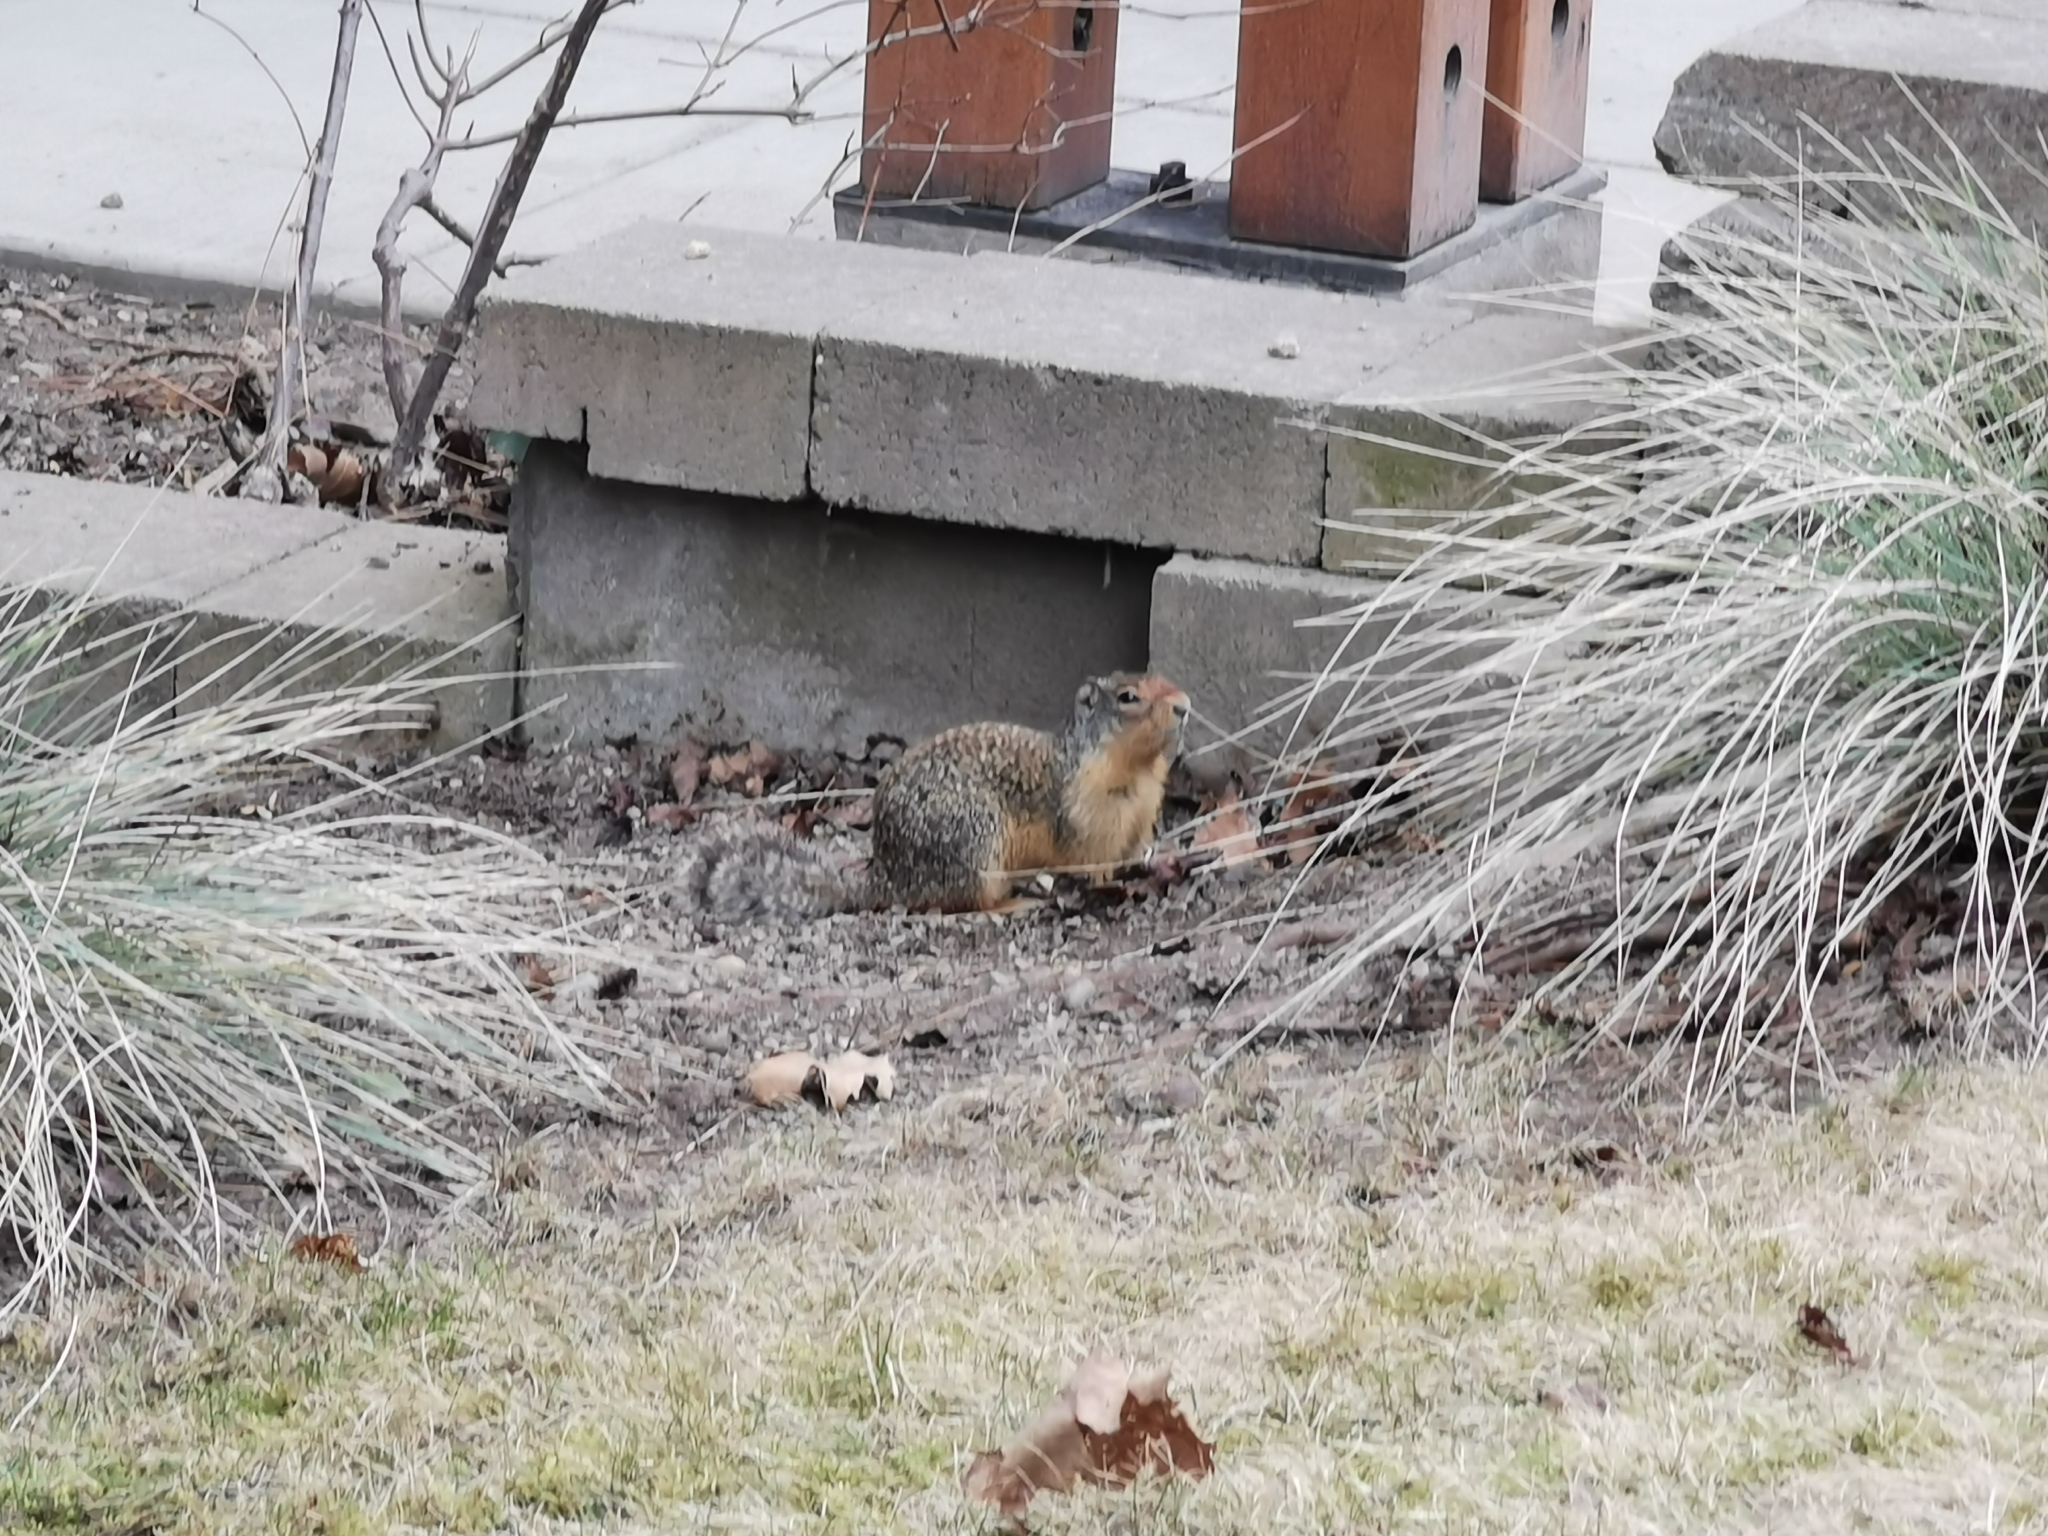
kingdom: Animalia
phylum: Chordata
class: Mammalia
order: Rodentia
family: Sciuridae
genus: Urocitellus
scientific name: Urocitellus columbianus
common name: Columbian ground squirrel
